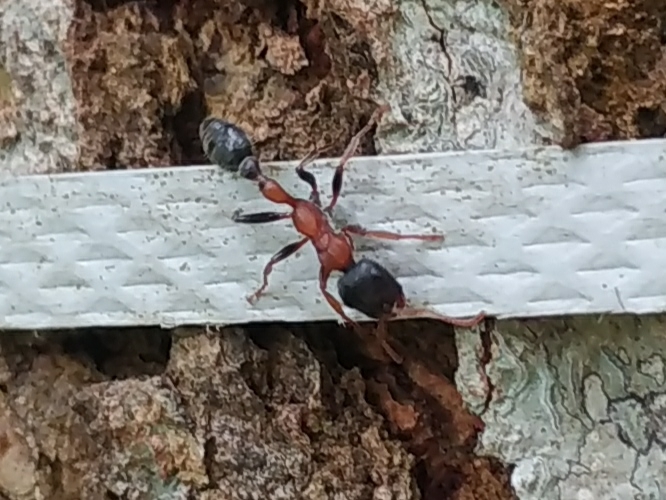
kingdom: Animalia
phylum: Arthropoda
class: Insecta
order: Hymenoptera
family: Formicidae
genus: Tetraponera
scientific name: Tetraponera rufonigra
